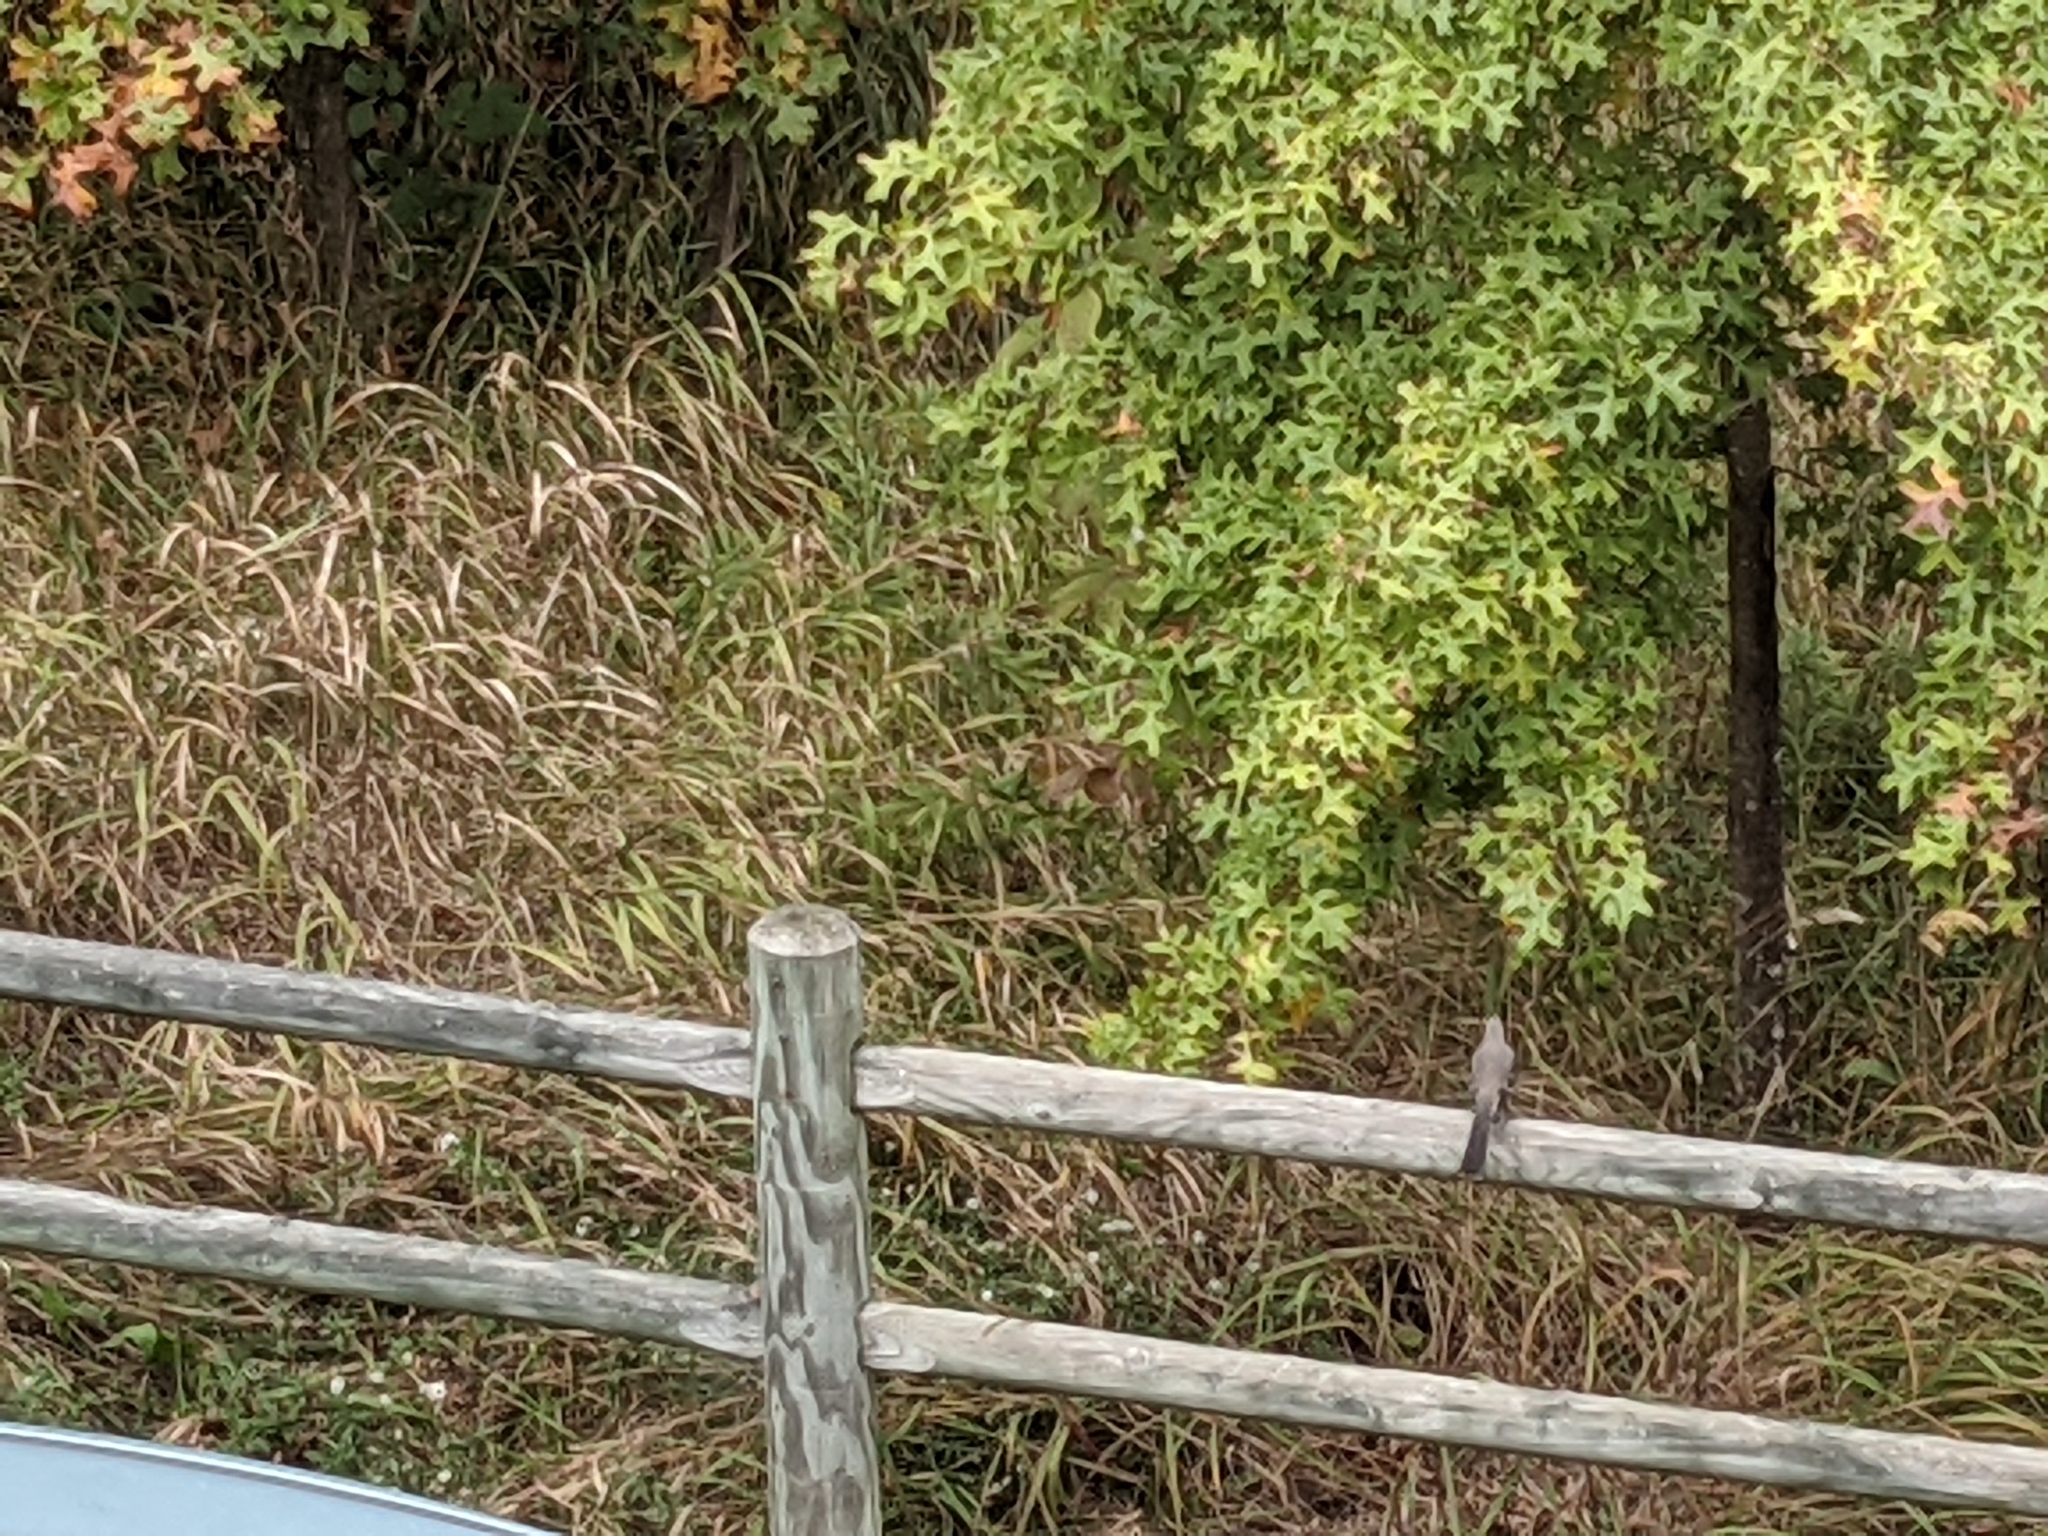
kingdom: Animalia
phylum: Chordata
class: Aves
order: Passeriformes
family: Mimidae
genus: Mimus
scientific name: Mimus polyglottos
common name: Northern mockingbird
